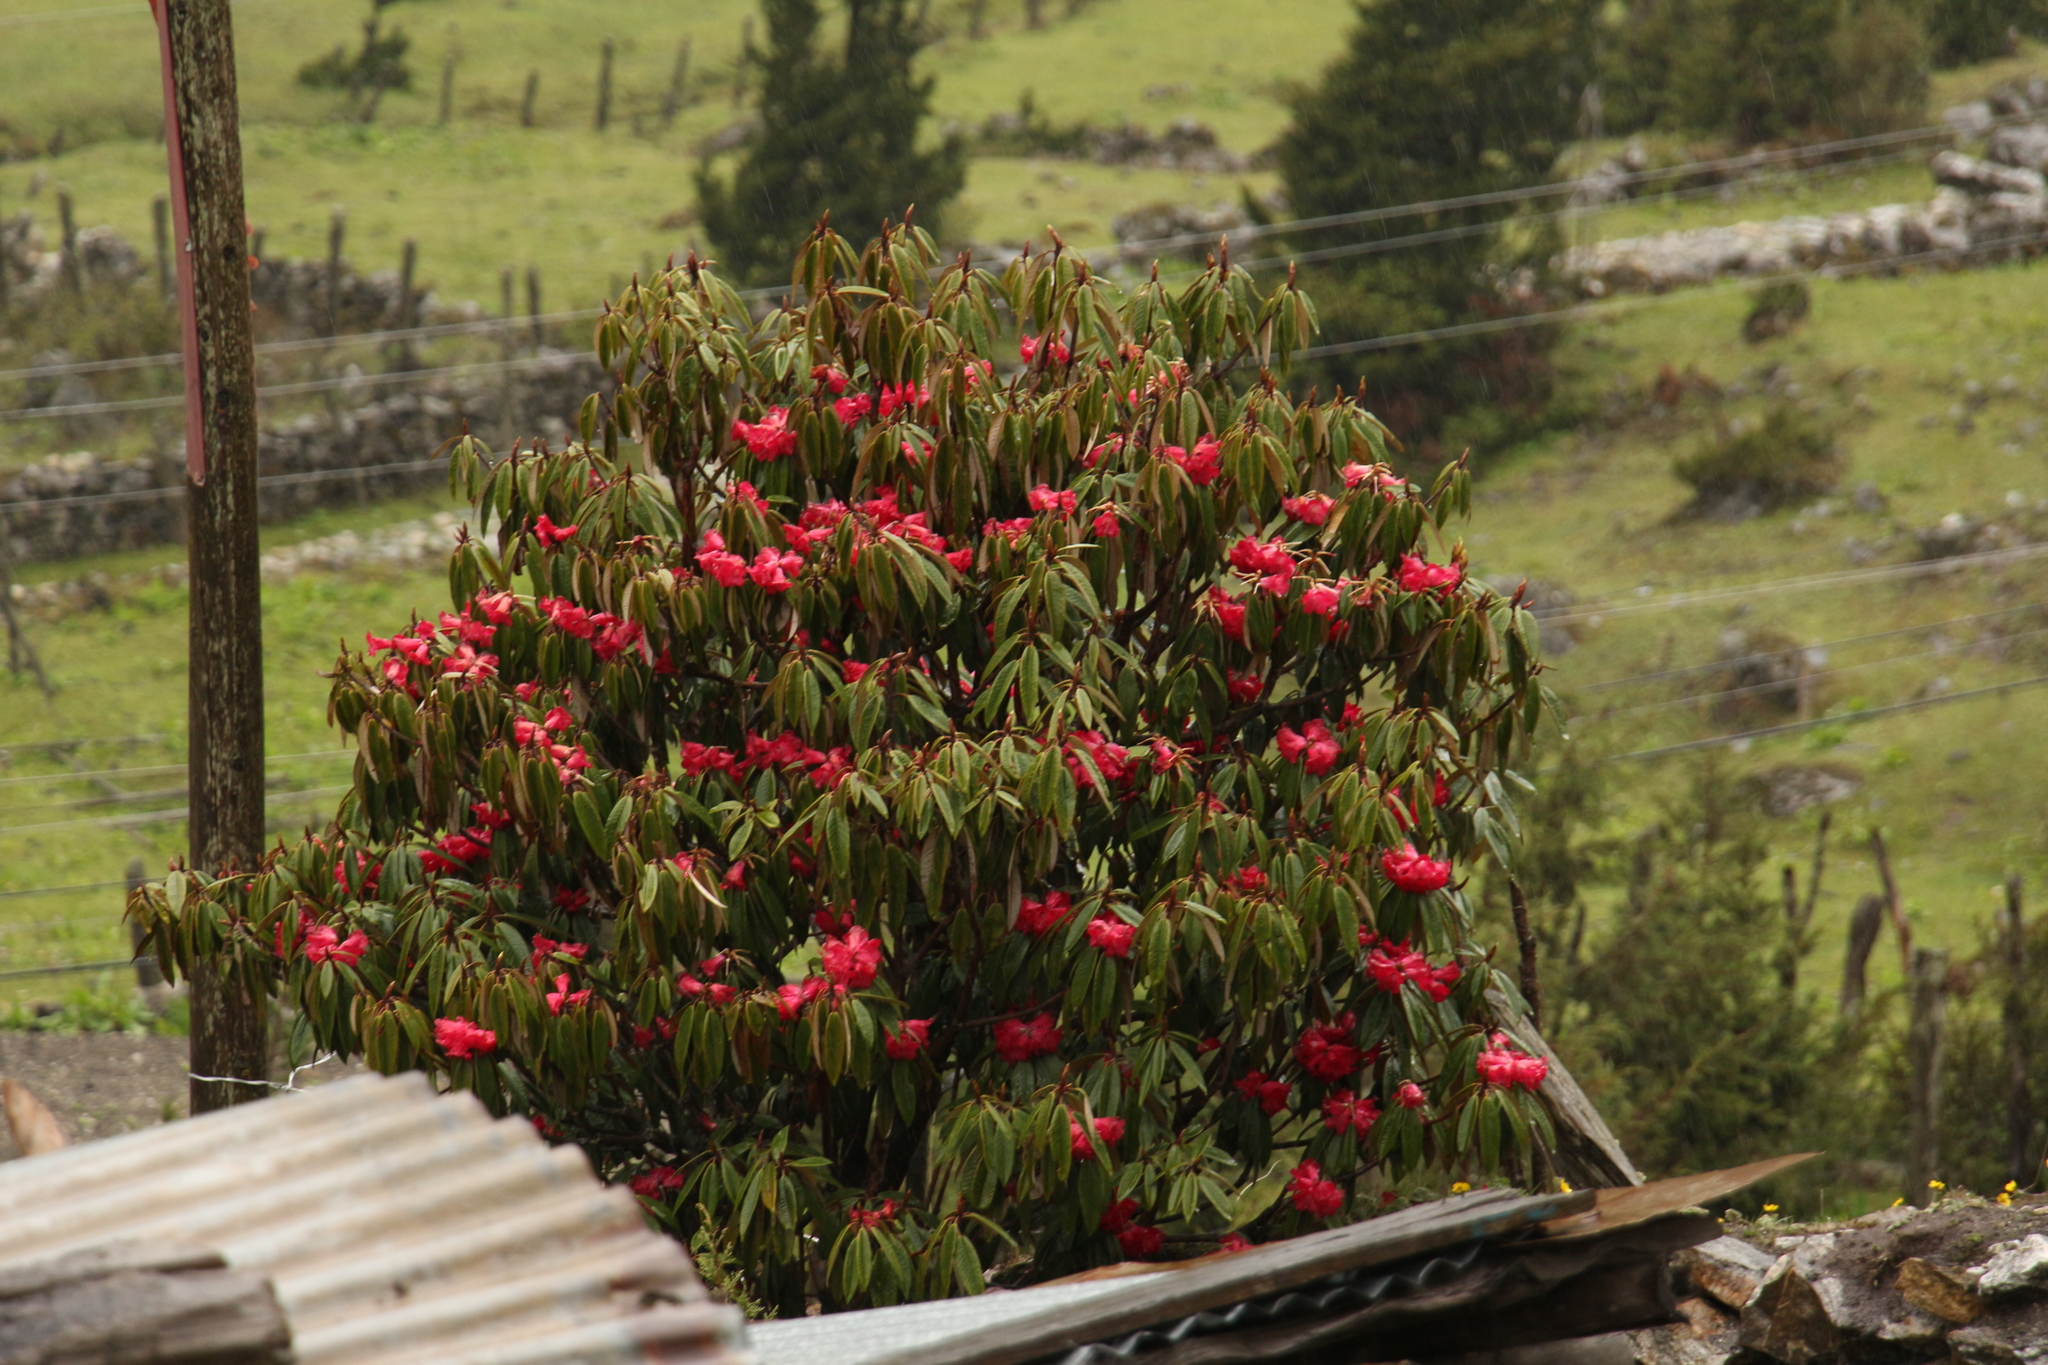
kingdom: Plantae
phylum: Tracheophyta
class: Magnoliopsida
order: Ericales
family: Ericaceae
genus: Rhododendron
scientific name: Rhododendron arboreum
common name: Tree rhododendron
